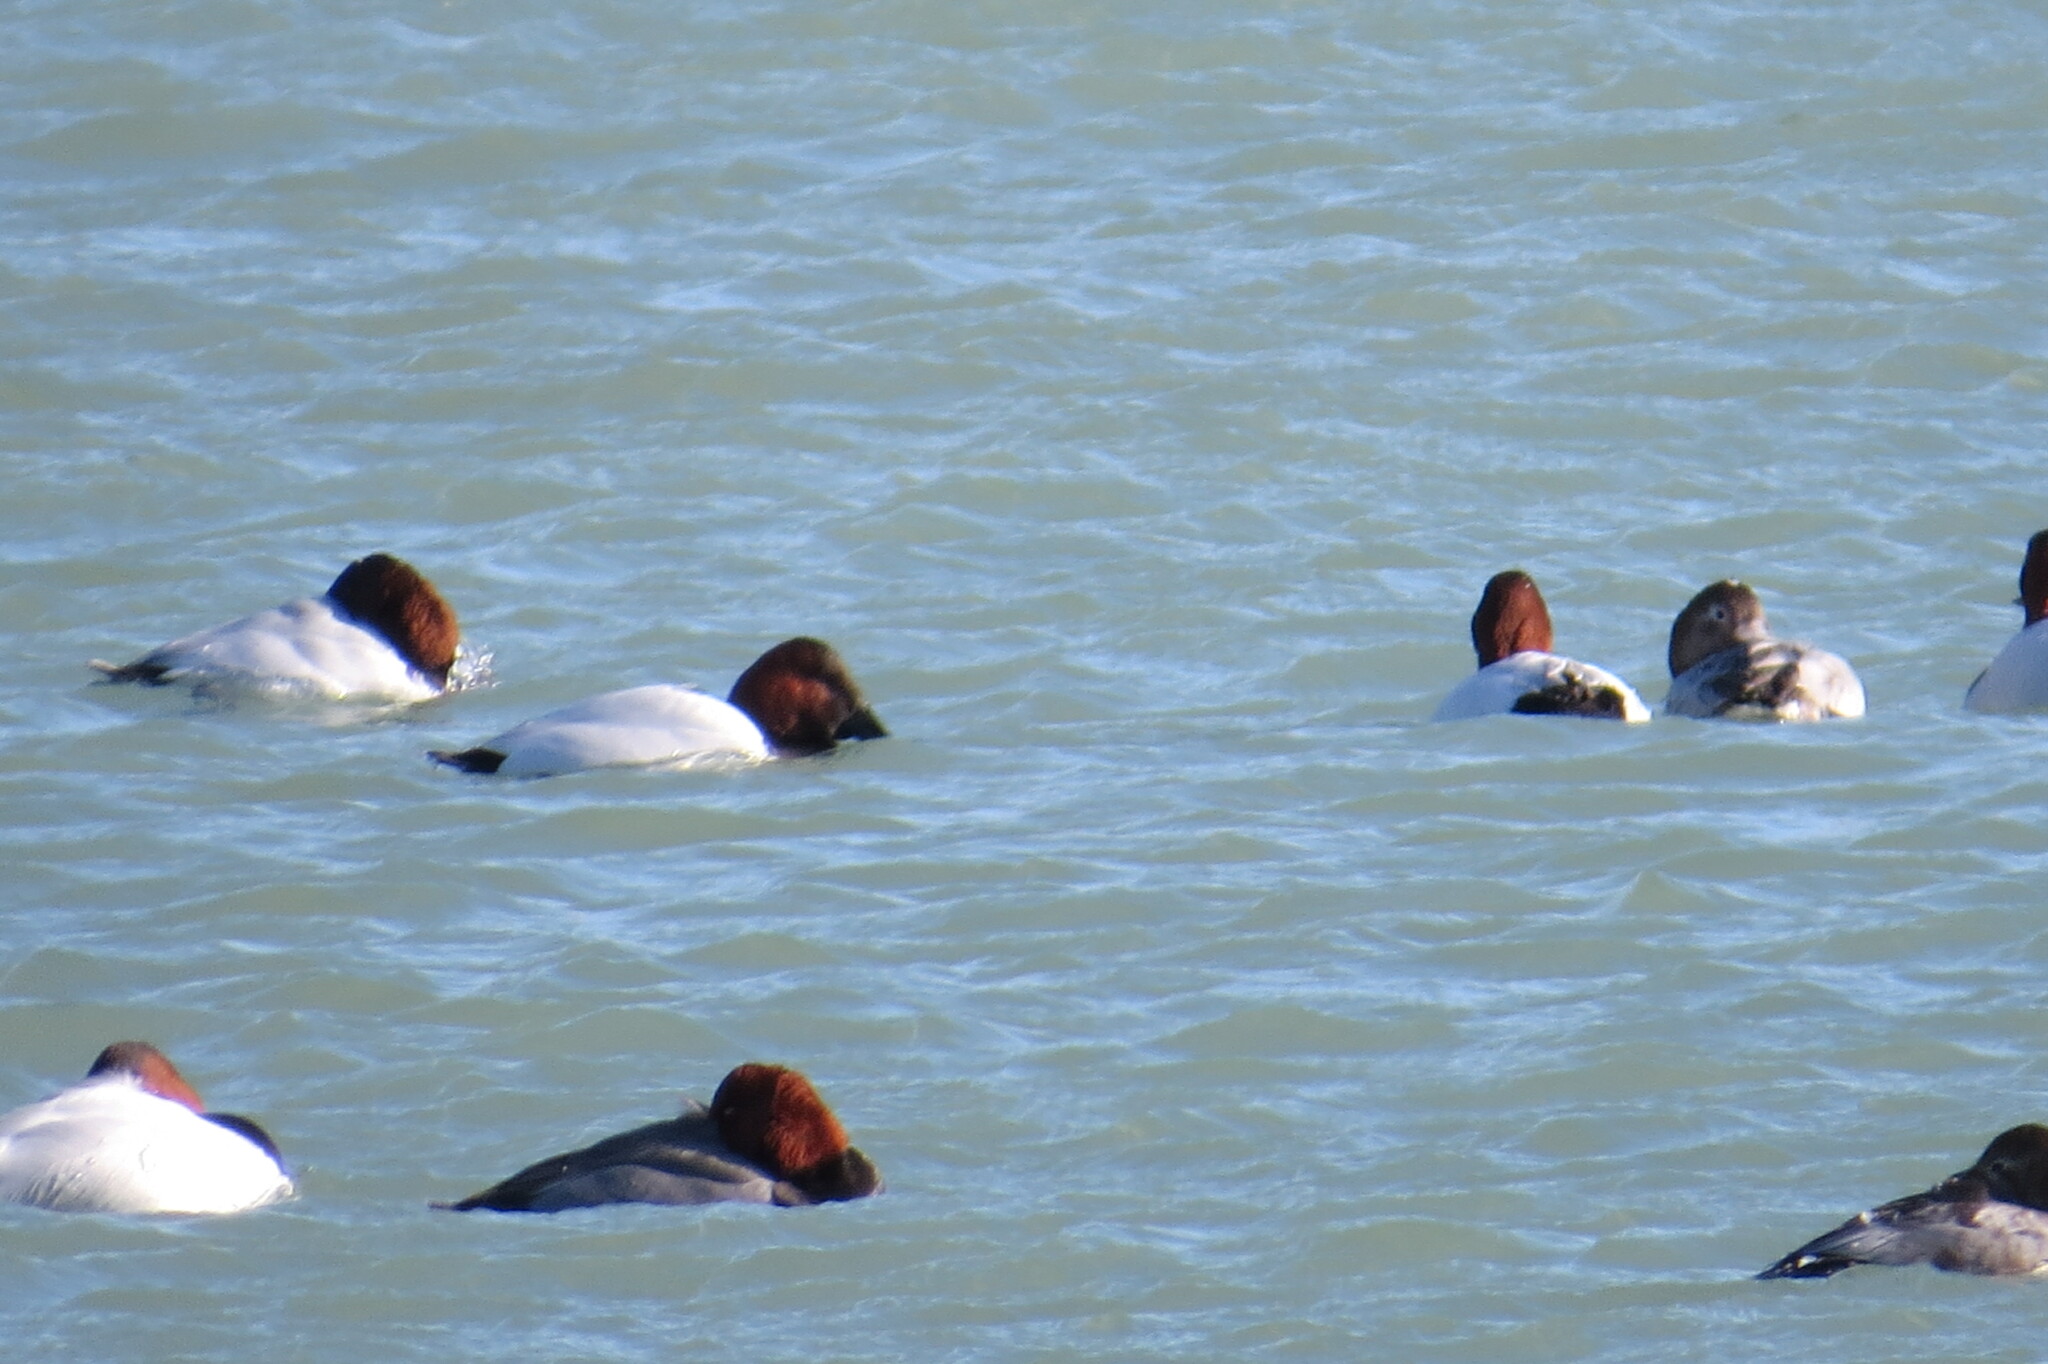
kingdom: Animalia
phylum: Chordata
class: Aves
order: Anseriformes
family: Anatidae
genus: Aythya
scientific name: Aythya valisineria
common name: Canvasback
